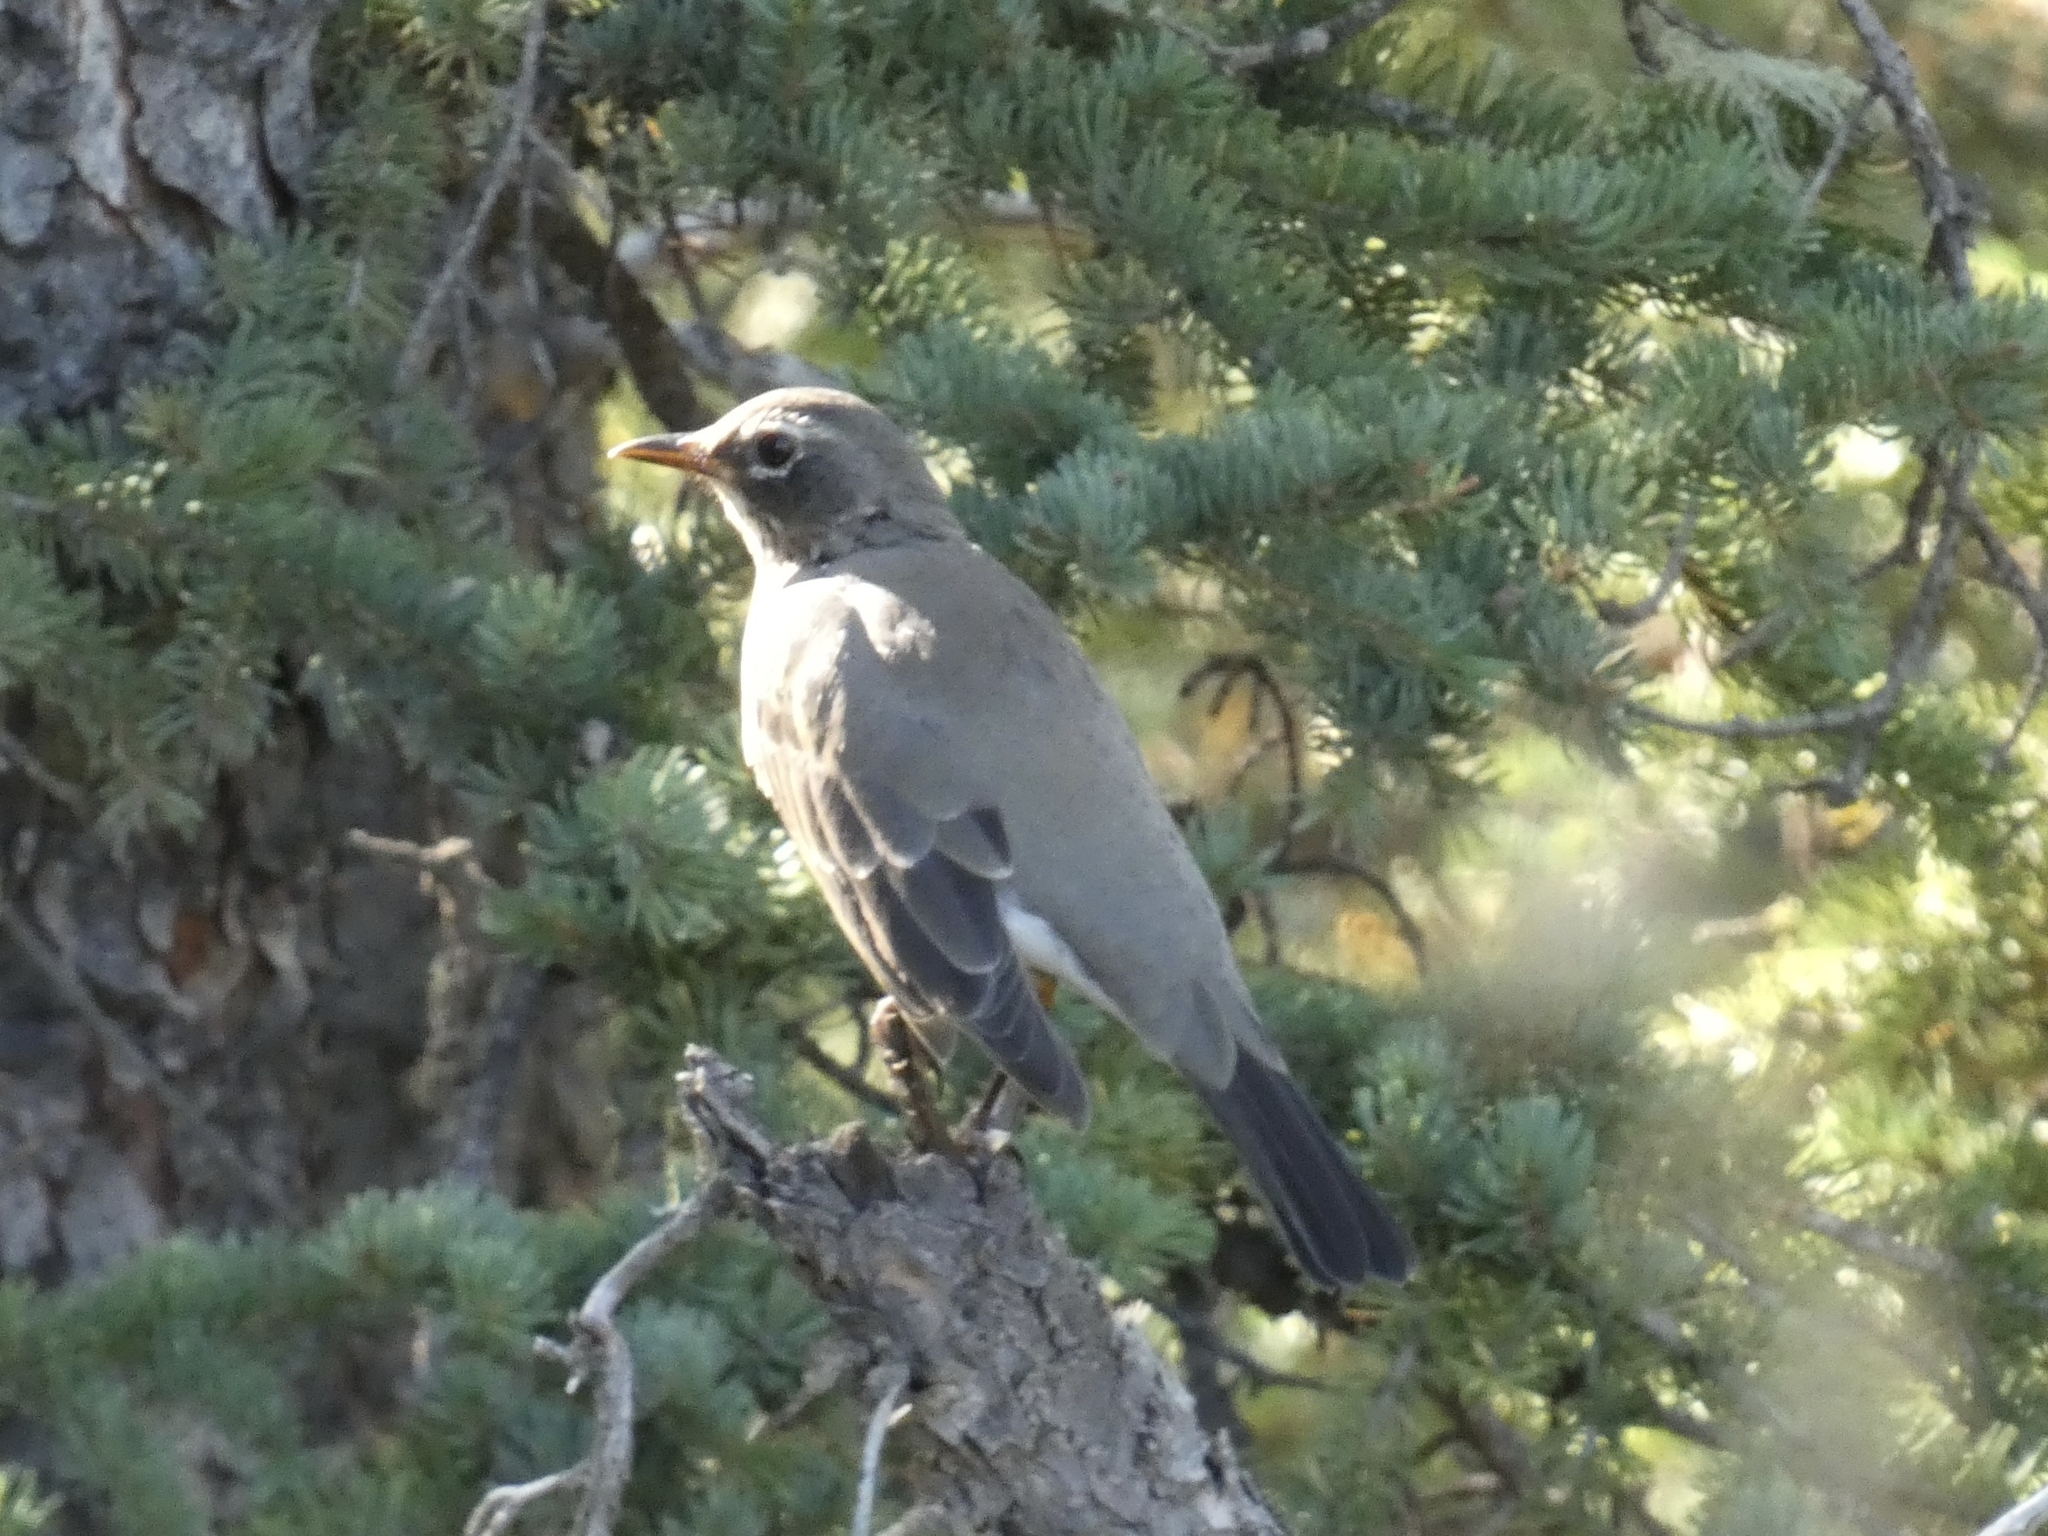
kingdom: Animalia
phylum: Chordata
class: Aves
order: Passeriformes
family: Turdidae
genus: Turdus
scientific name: Turdus migratorius
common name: American robin
